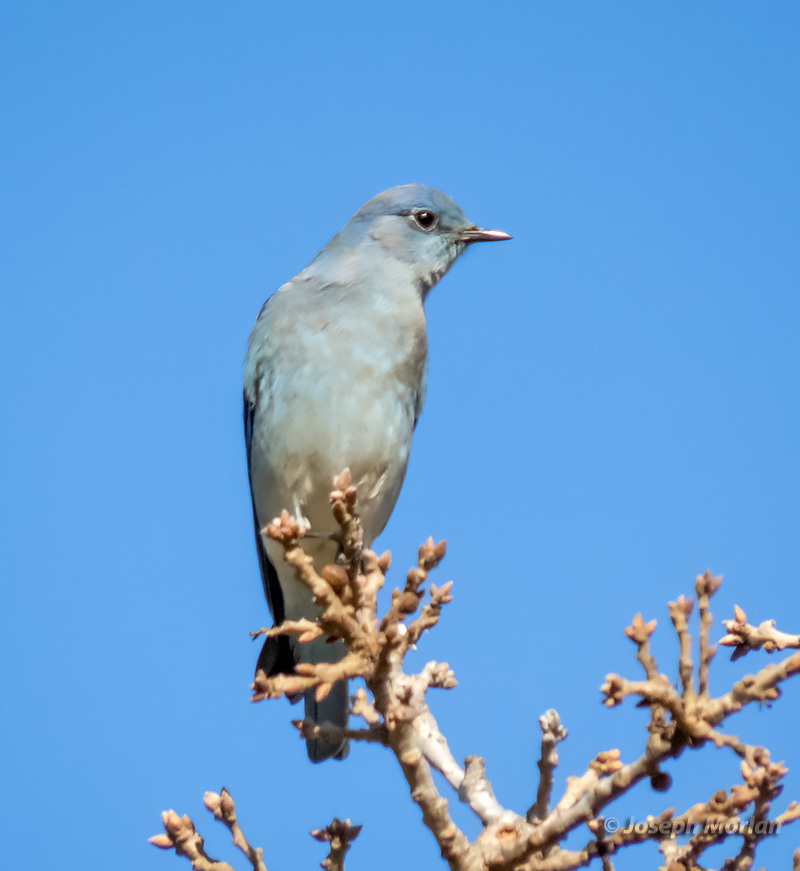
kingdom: Animalia
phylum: Chordata
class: Aves
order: Passeriformes
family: Turdidae
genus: Sialia
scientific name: Sialia currucoides
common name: Mountain bluebird
